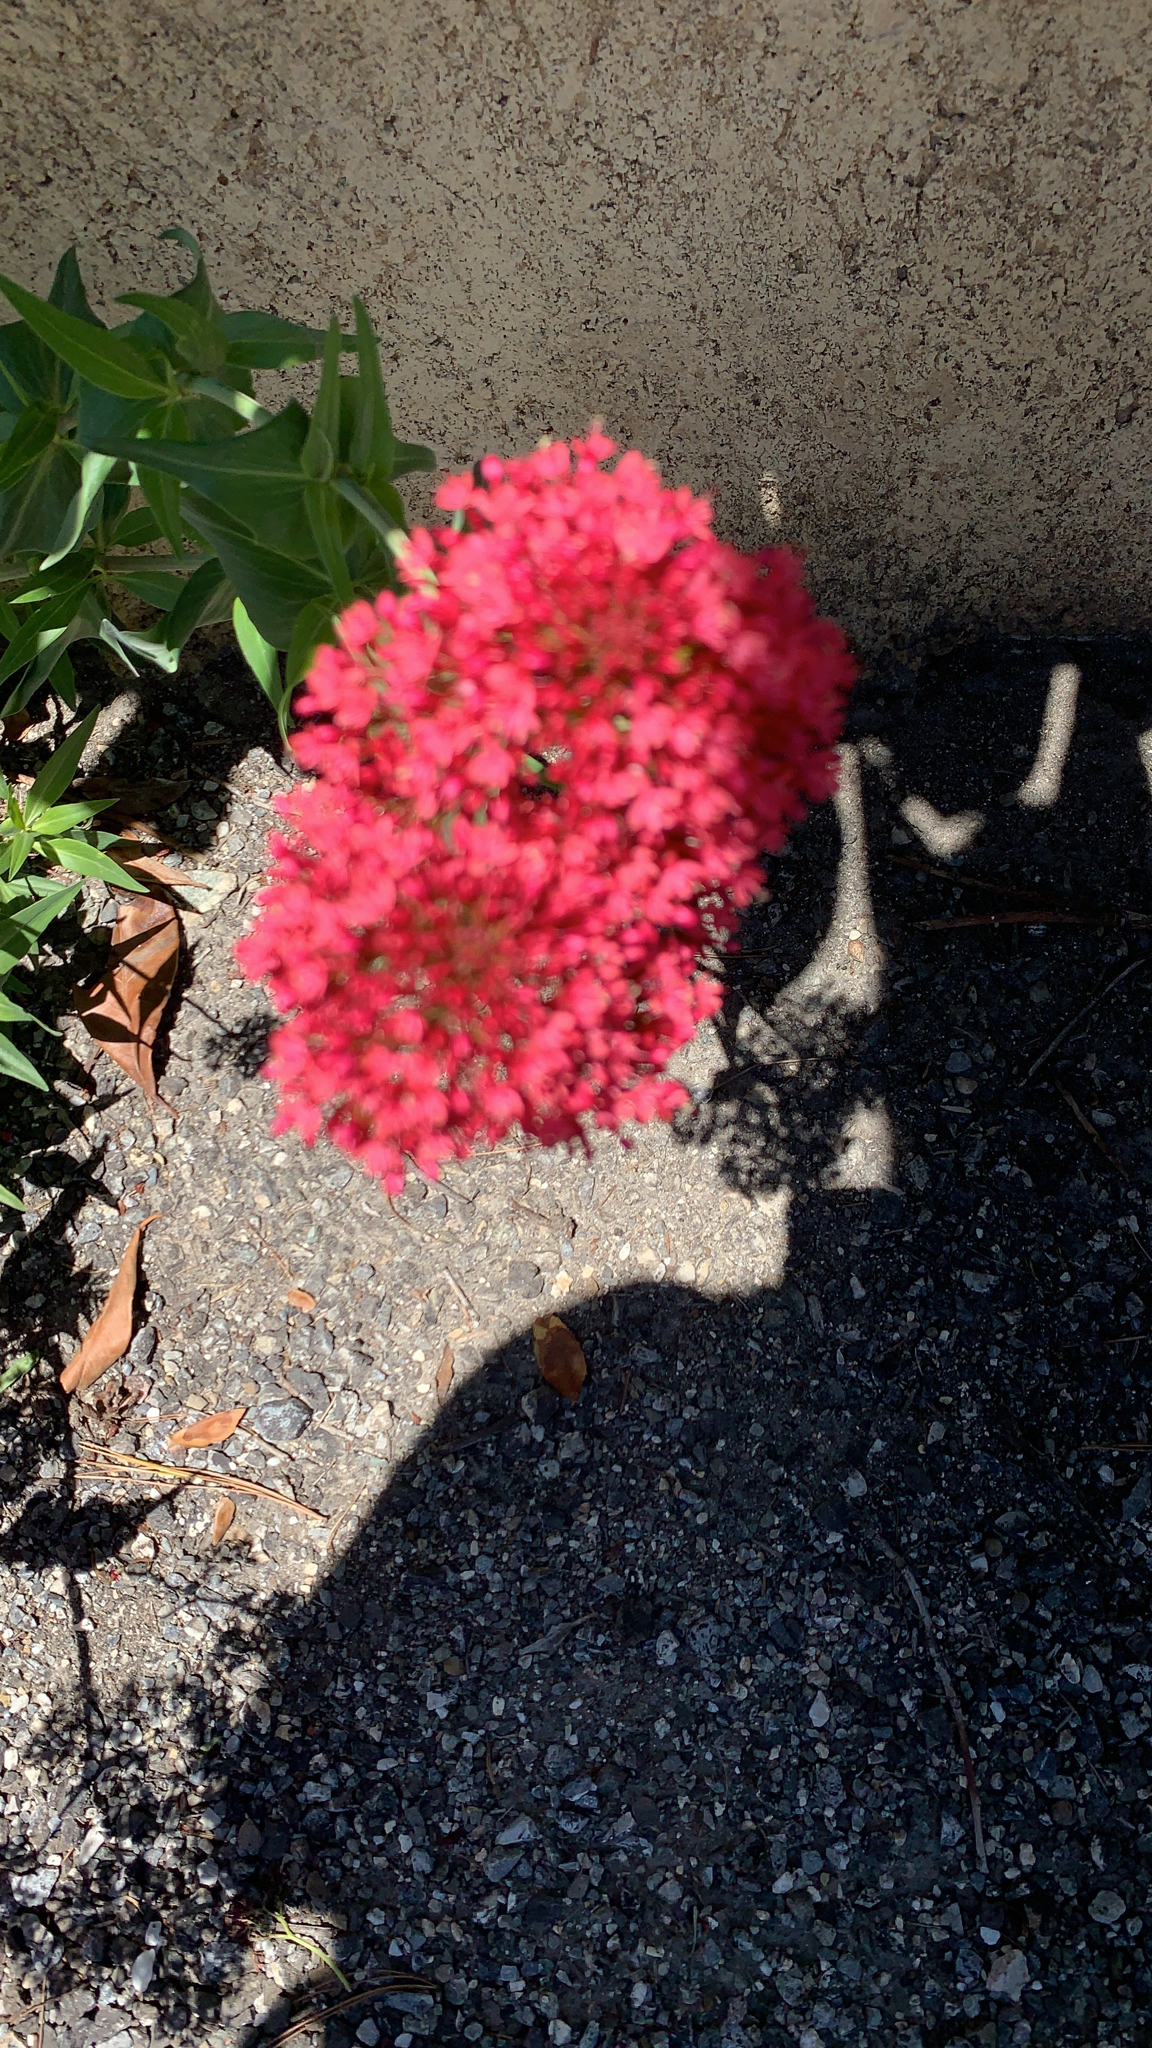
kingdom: Plantae
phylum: Tracheophyta
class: Magnoliopsida
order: Dipsacales
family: Caprifoliaceae
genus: Centranthus
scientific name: Centranthus ruber
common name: Red valerian
